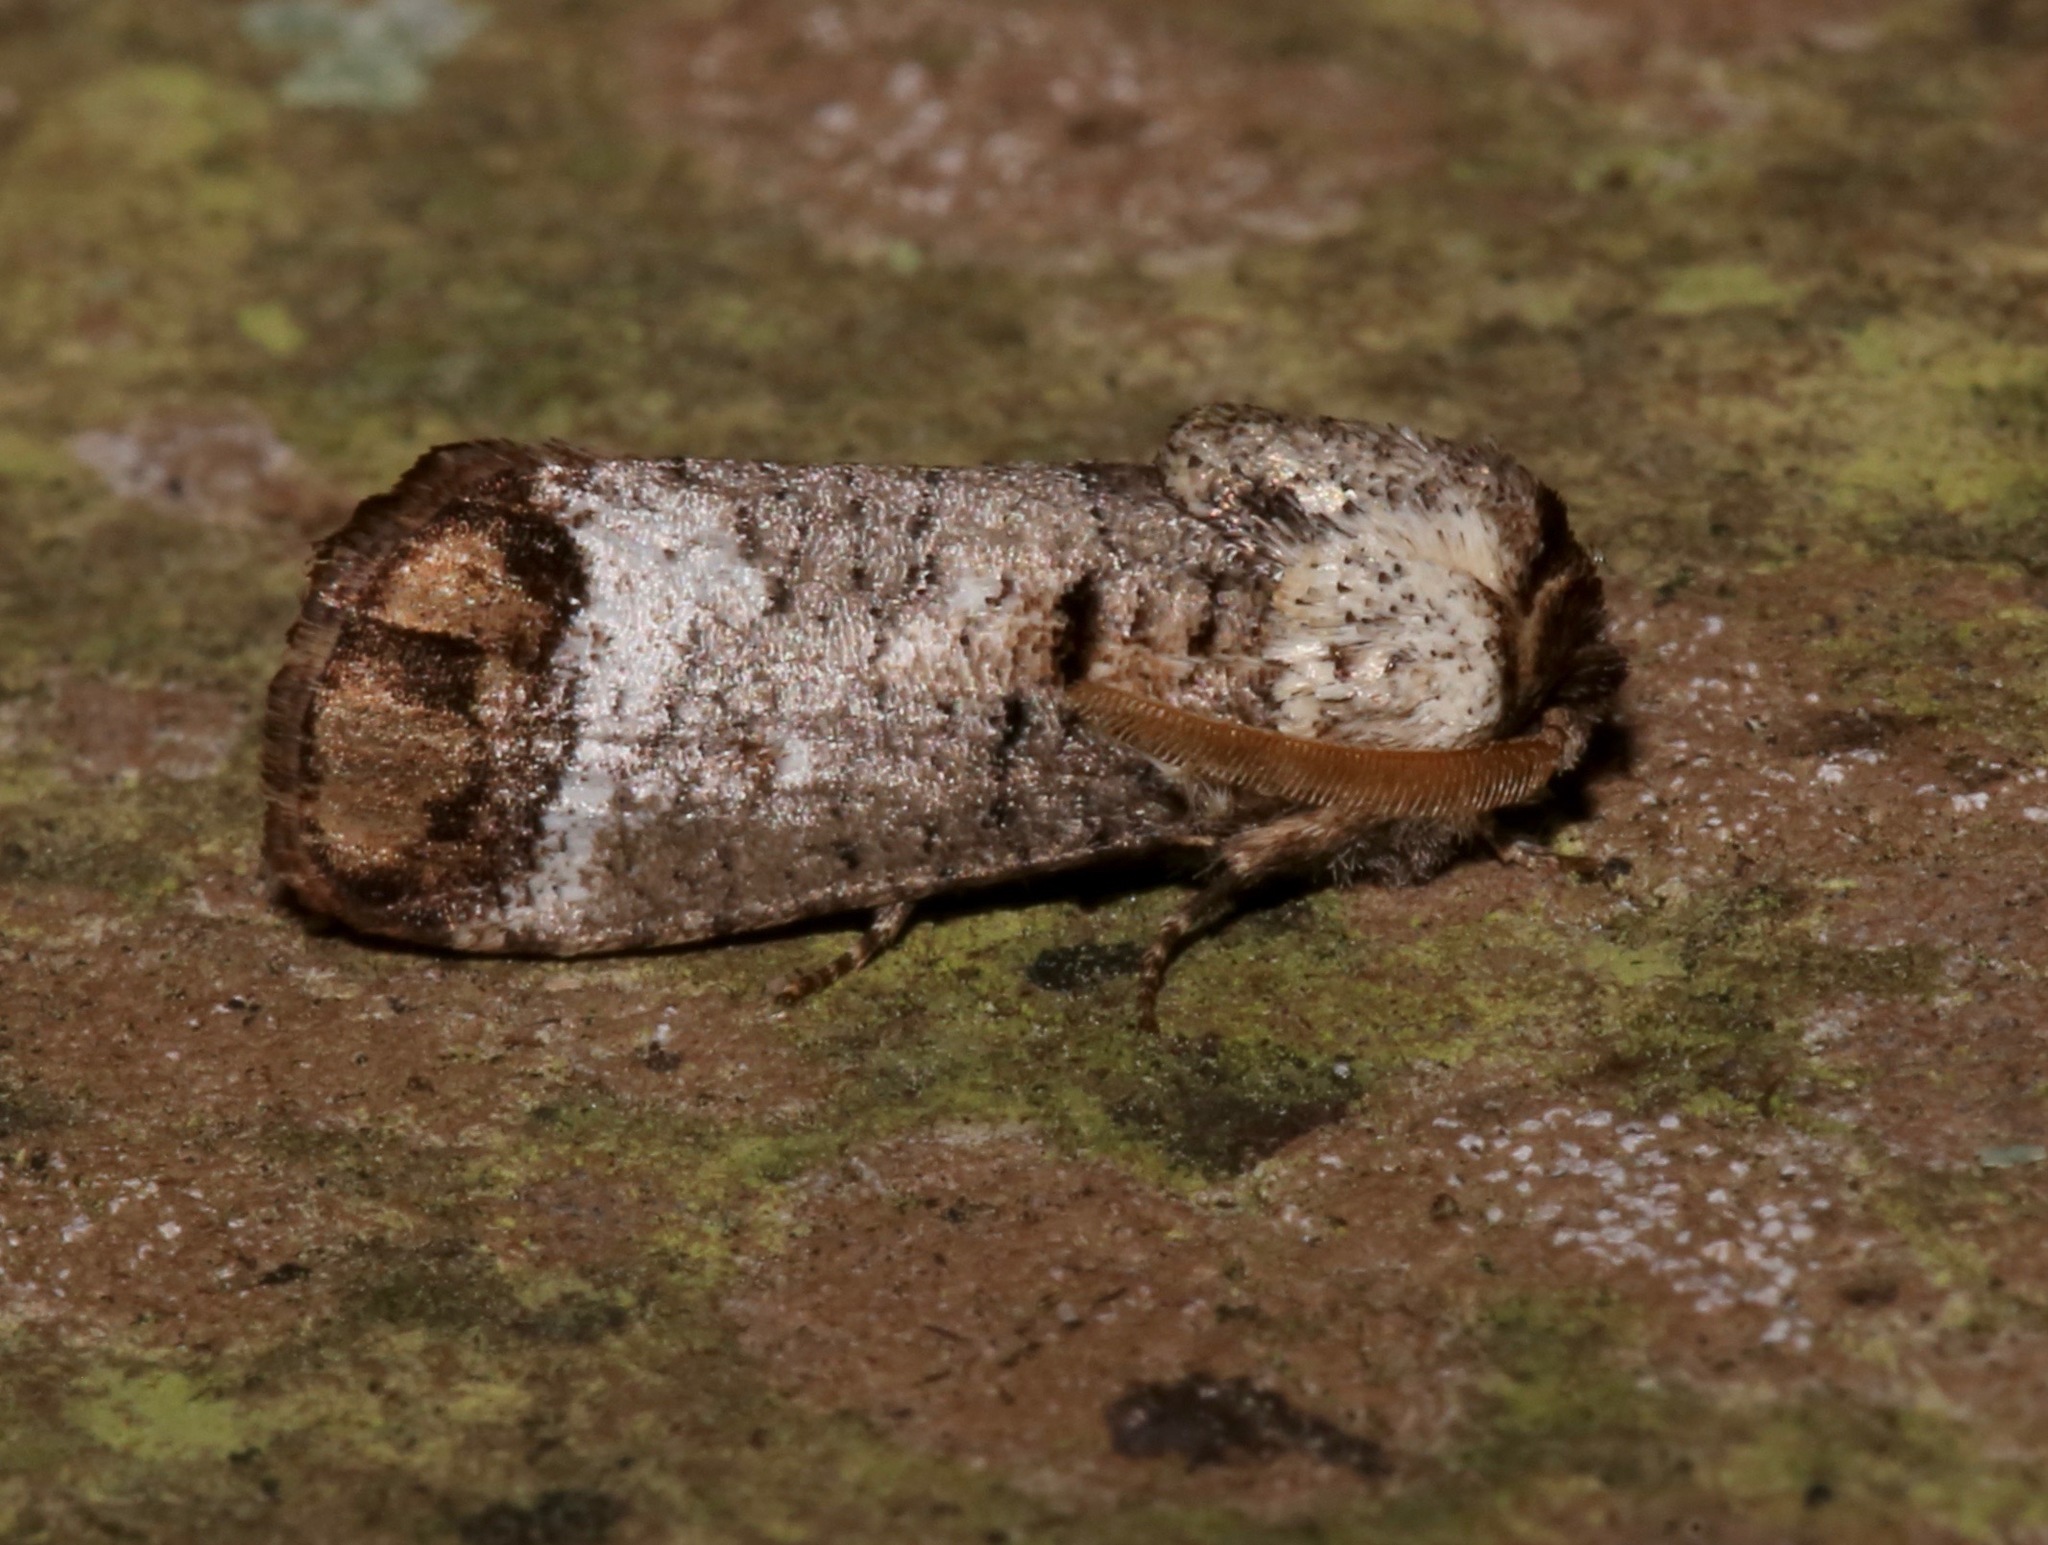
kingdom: Animalia
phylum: Arthropoda
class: Insecta
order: Lepidoptera
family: Cossidae
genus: Cossula
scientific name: Cossula magnifica
